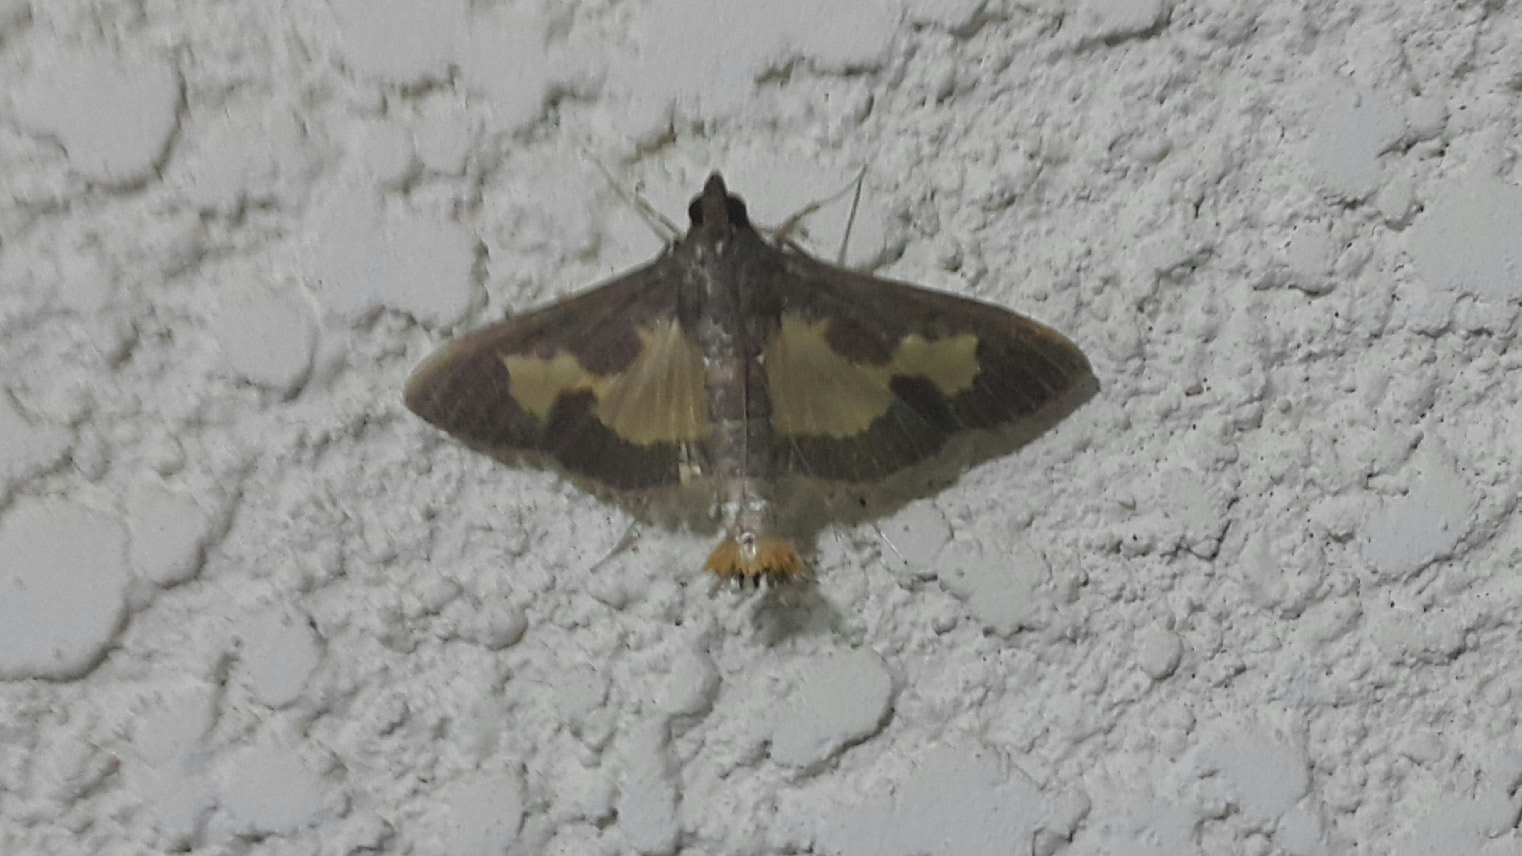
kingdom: Animalia
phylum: Arthropoda
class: Insecta
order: Lepidoptera
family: Crambidae
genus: Cryptographis
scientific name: Cryptographis nitidalis
